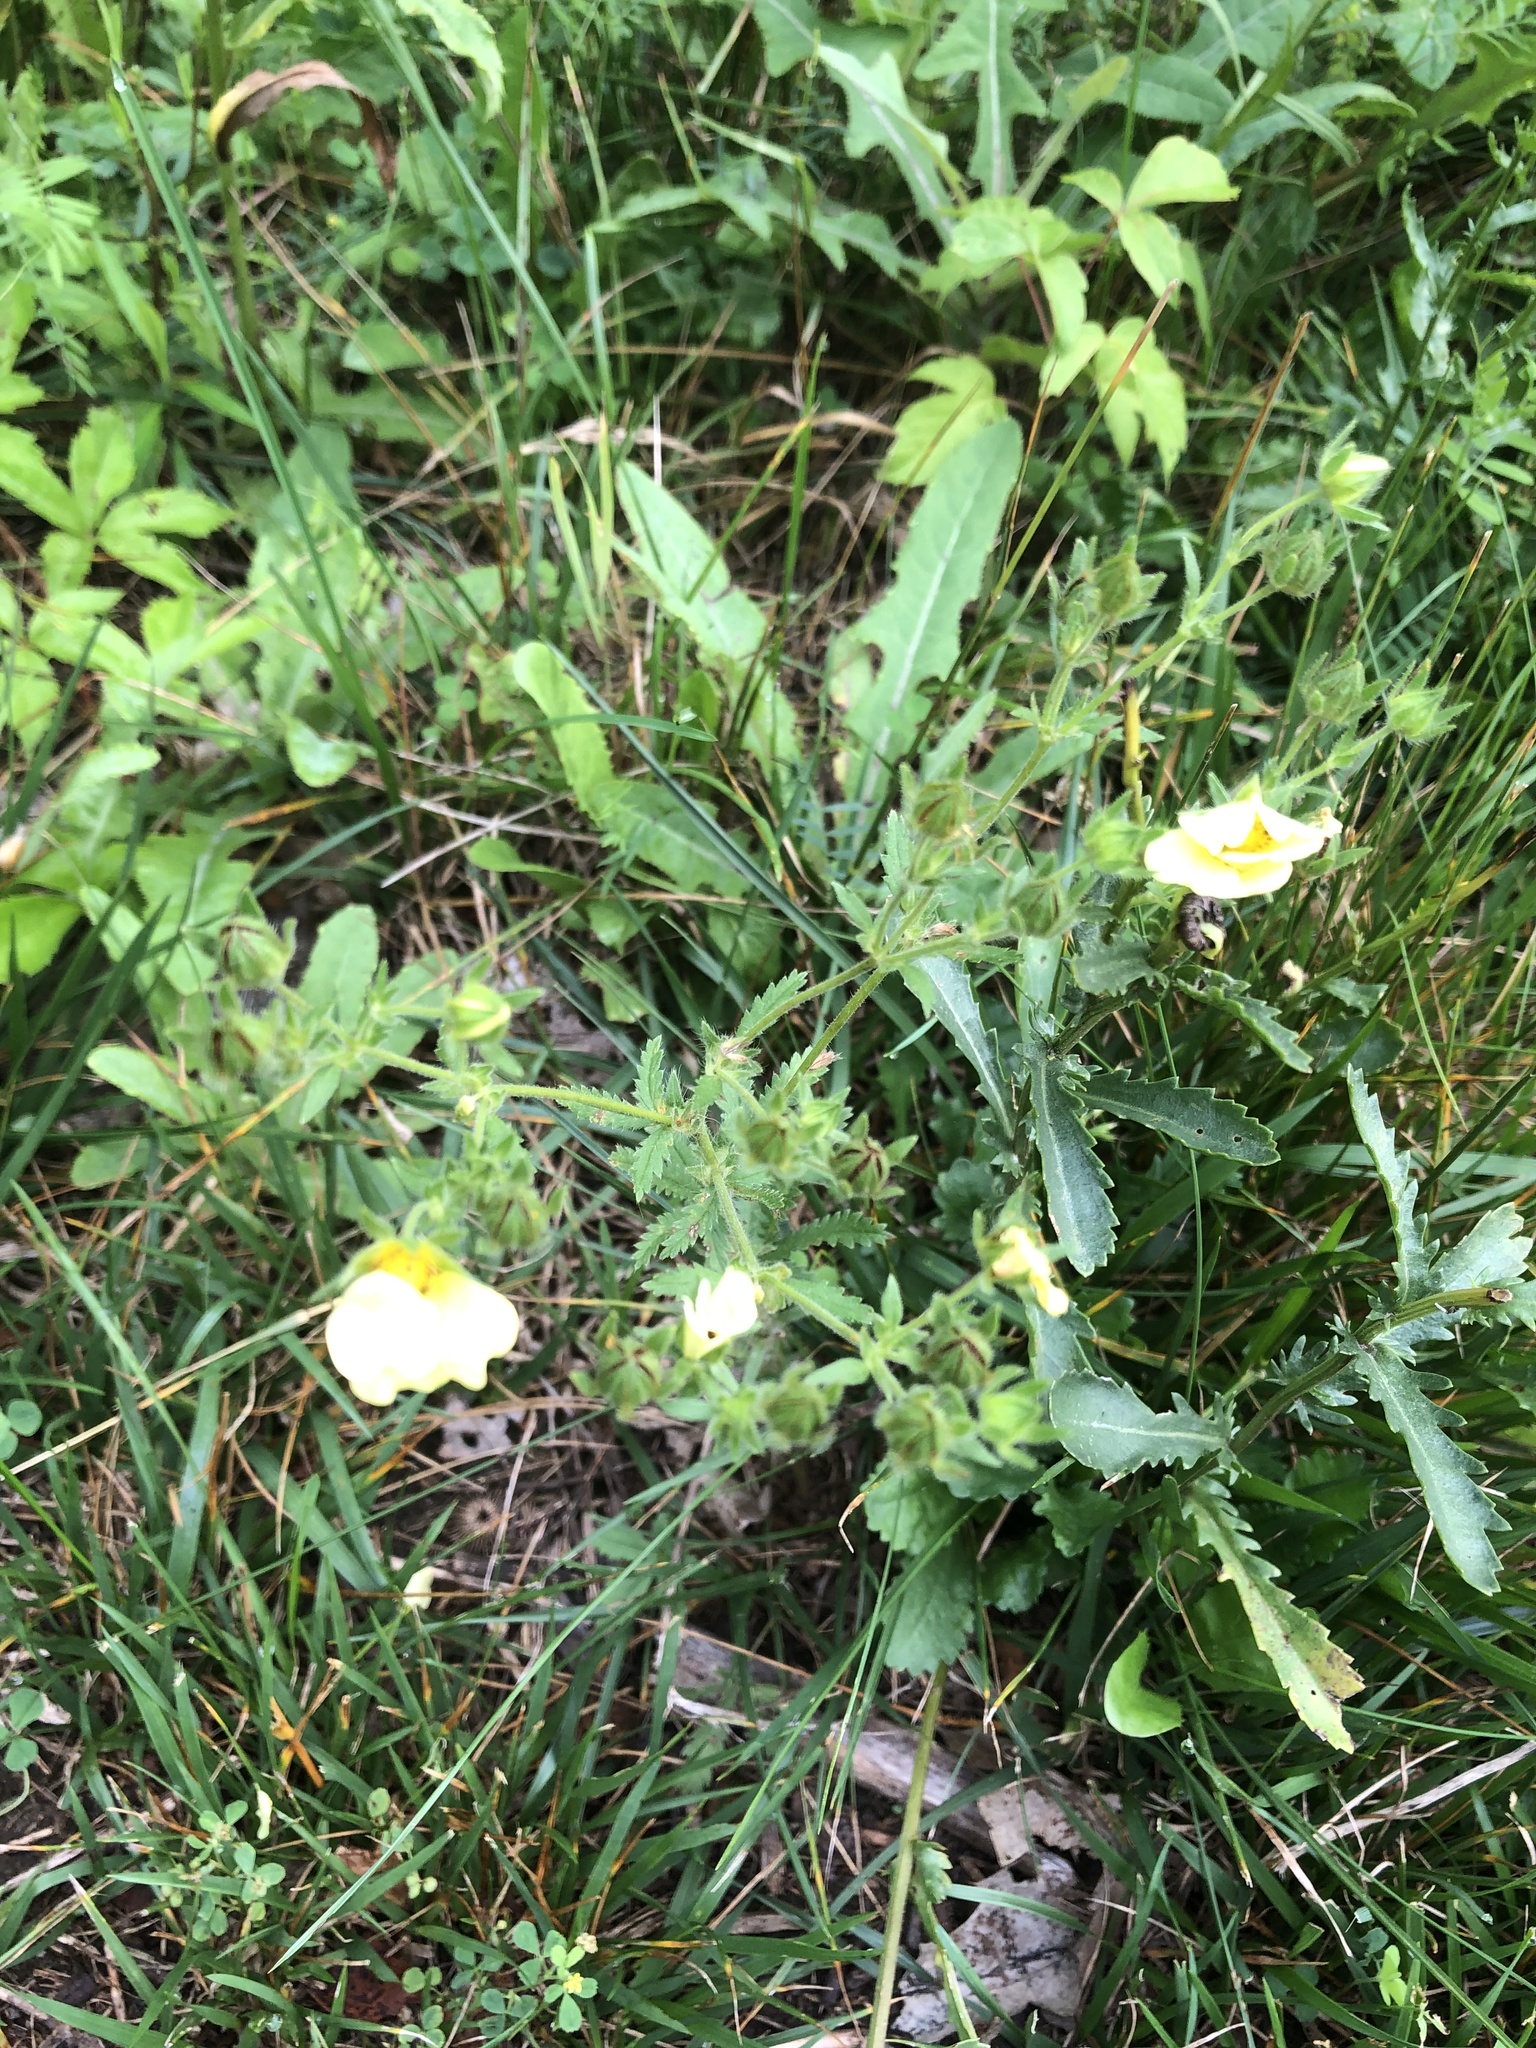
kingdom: Plantae
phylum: Tracheophyta
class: Magnoliopsida
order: Rosales
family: Rosaceae
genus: Potentilla
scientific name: Potentilla recta
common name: Sulphur cinquefoil
